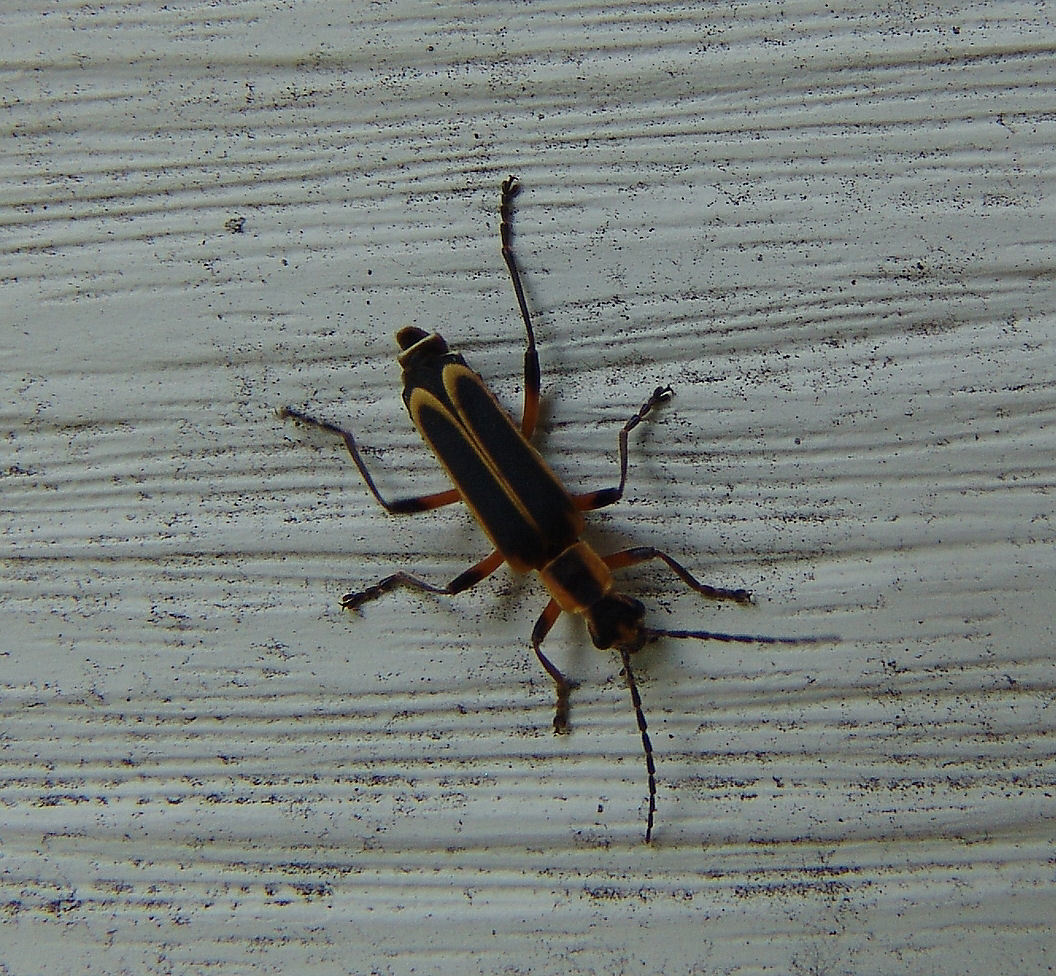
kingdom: Animalia
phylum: Arthropoda
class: Insecta
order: Coleoptera
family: Cantharidae
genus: Chauliognathus
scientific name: Chauliognathus marginatus
